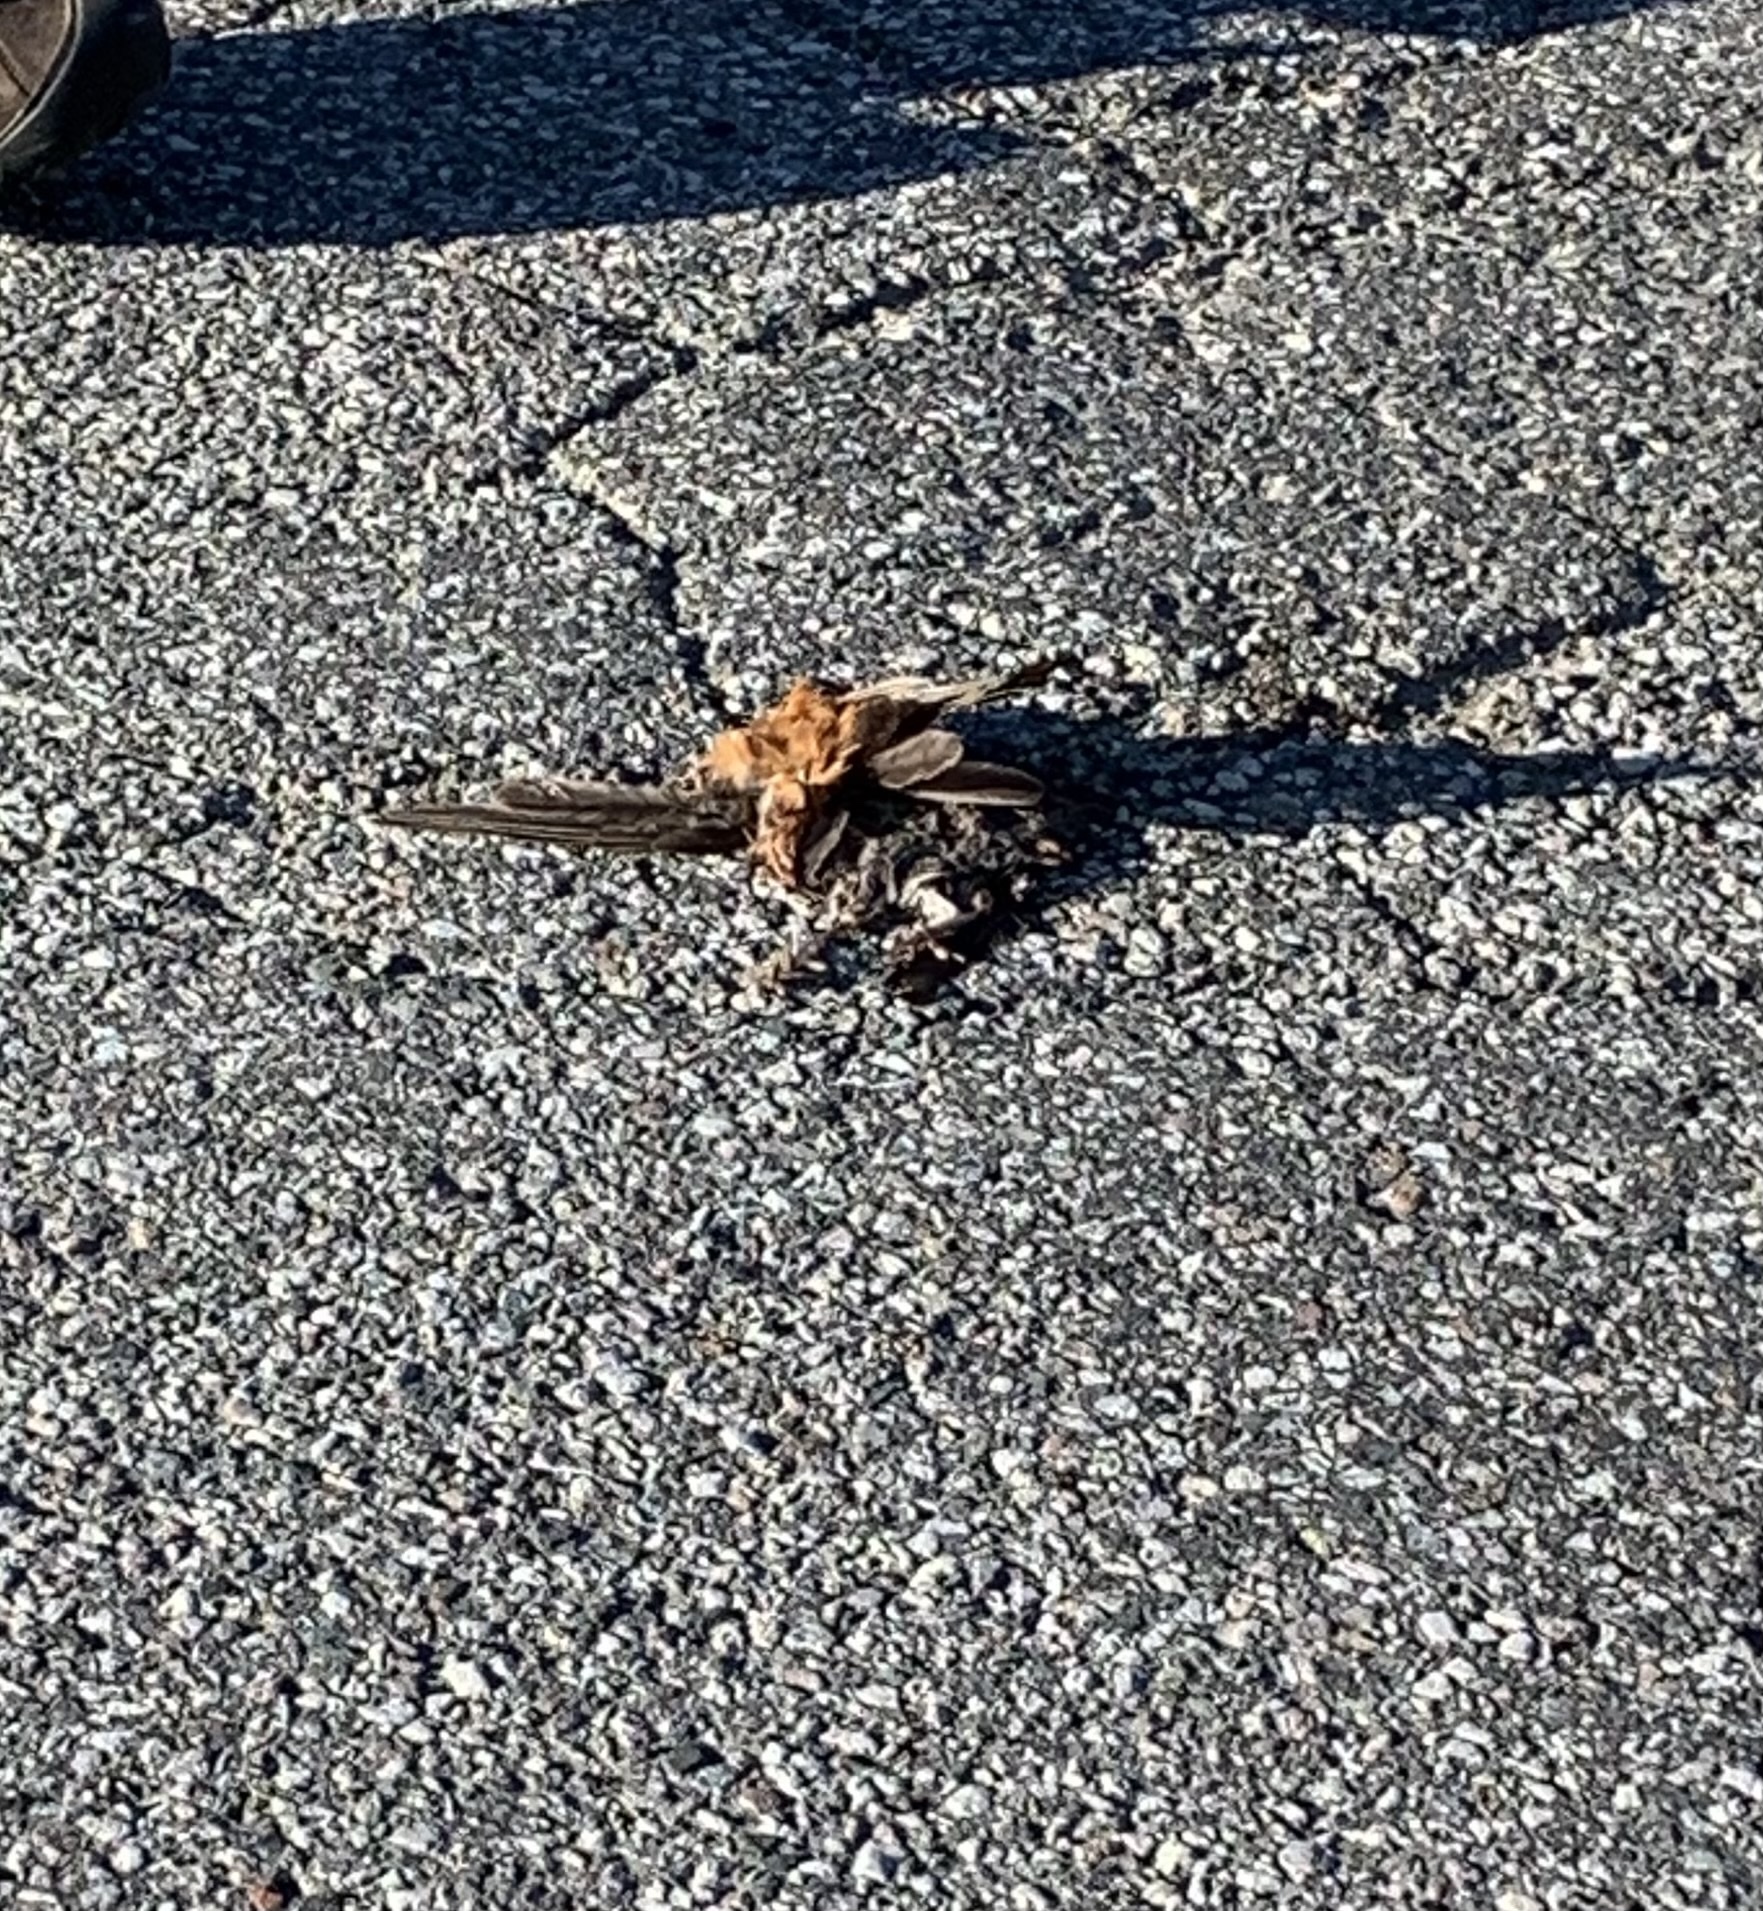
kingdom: Animalia
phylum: Chordata
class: Aves
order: Passeriformes
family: Turdidae
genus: Turdus
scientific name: Turdus migratorius
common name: American robin
